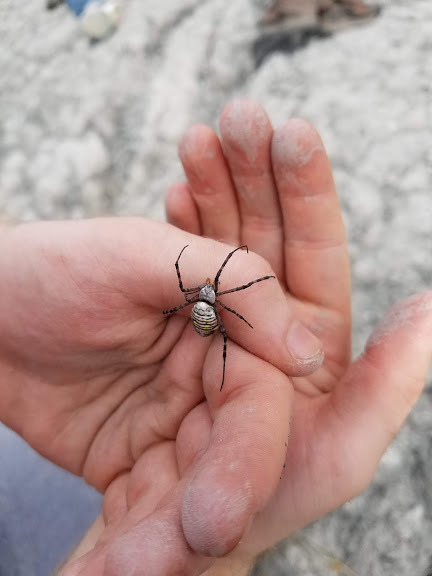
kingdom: Animalia
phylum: Arthropoda
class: Arachnida
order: Araneae
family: Araneidae
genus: Argiope
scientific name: Argiope trifasciata
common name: Banded garden spider
